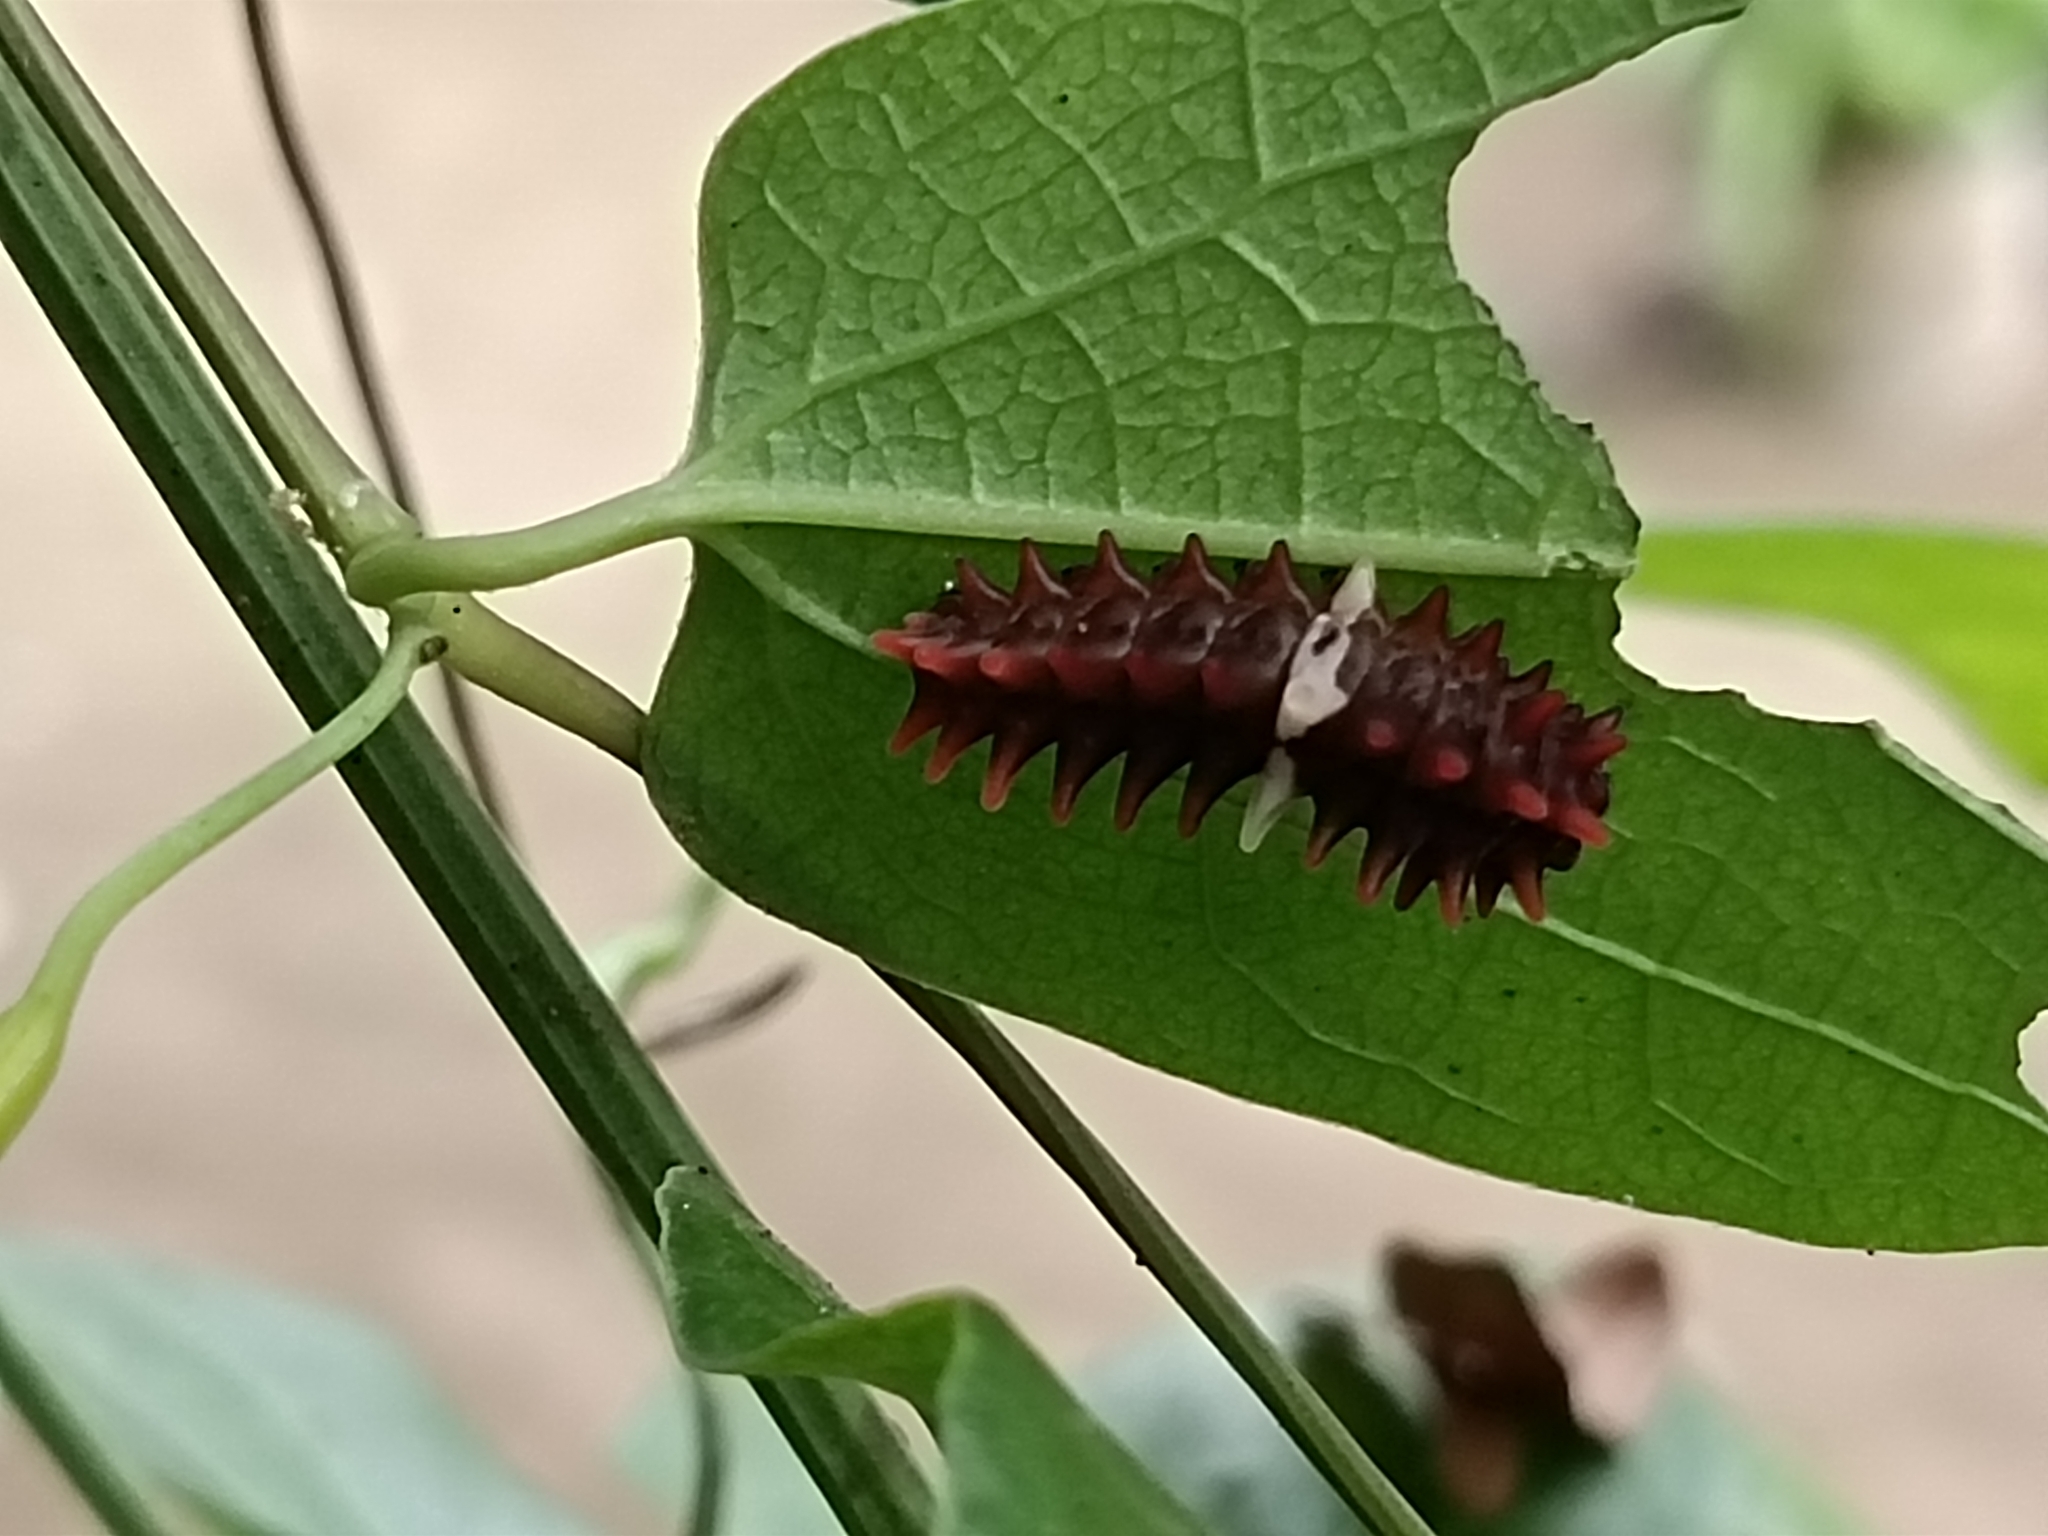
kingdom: Animalia
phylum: Arthropoda
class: Insecta
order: Lepidoptera
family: Papilionidae
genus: Pachliopta
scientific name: Pachliopta aristolochiae
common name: Common rose
